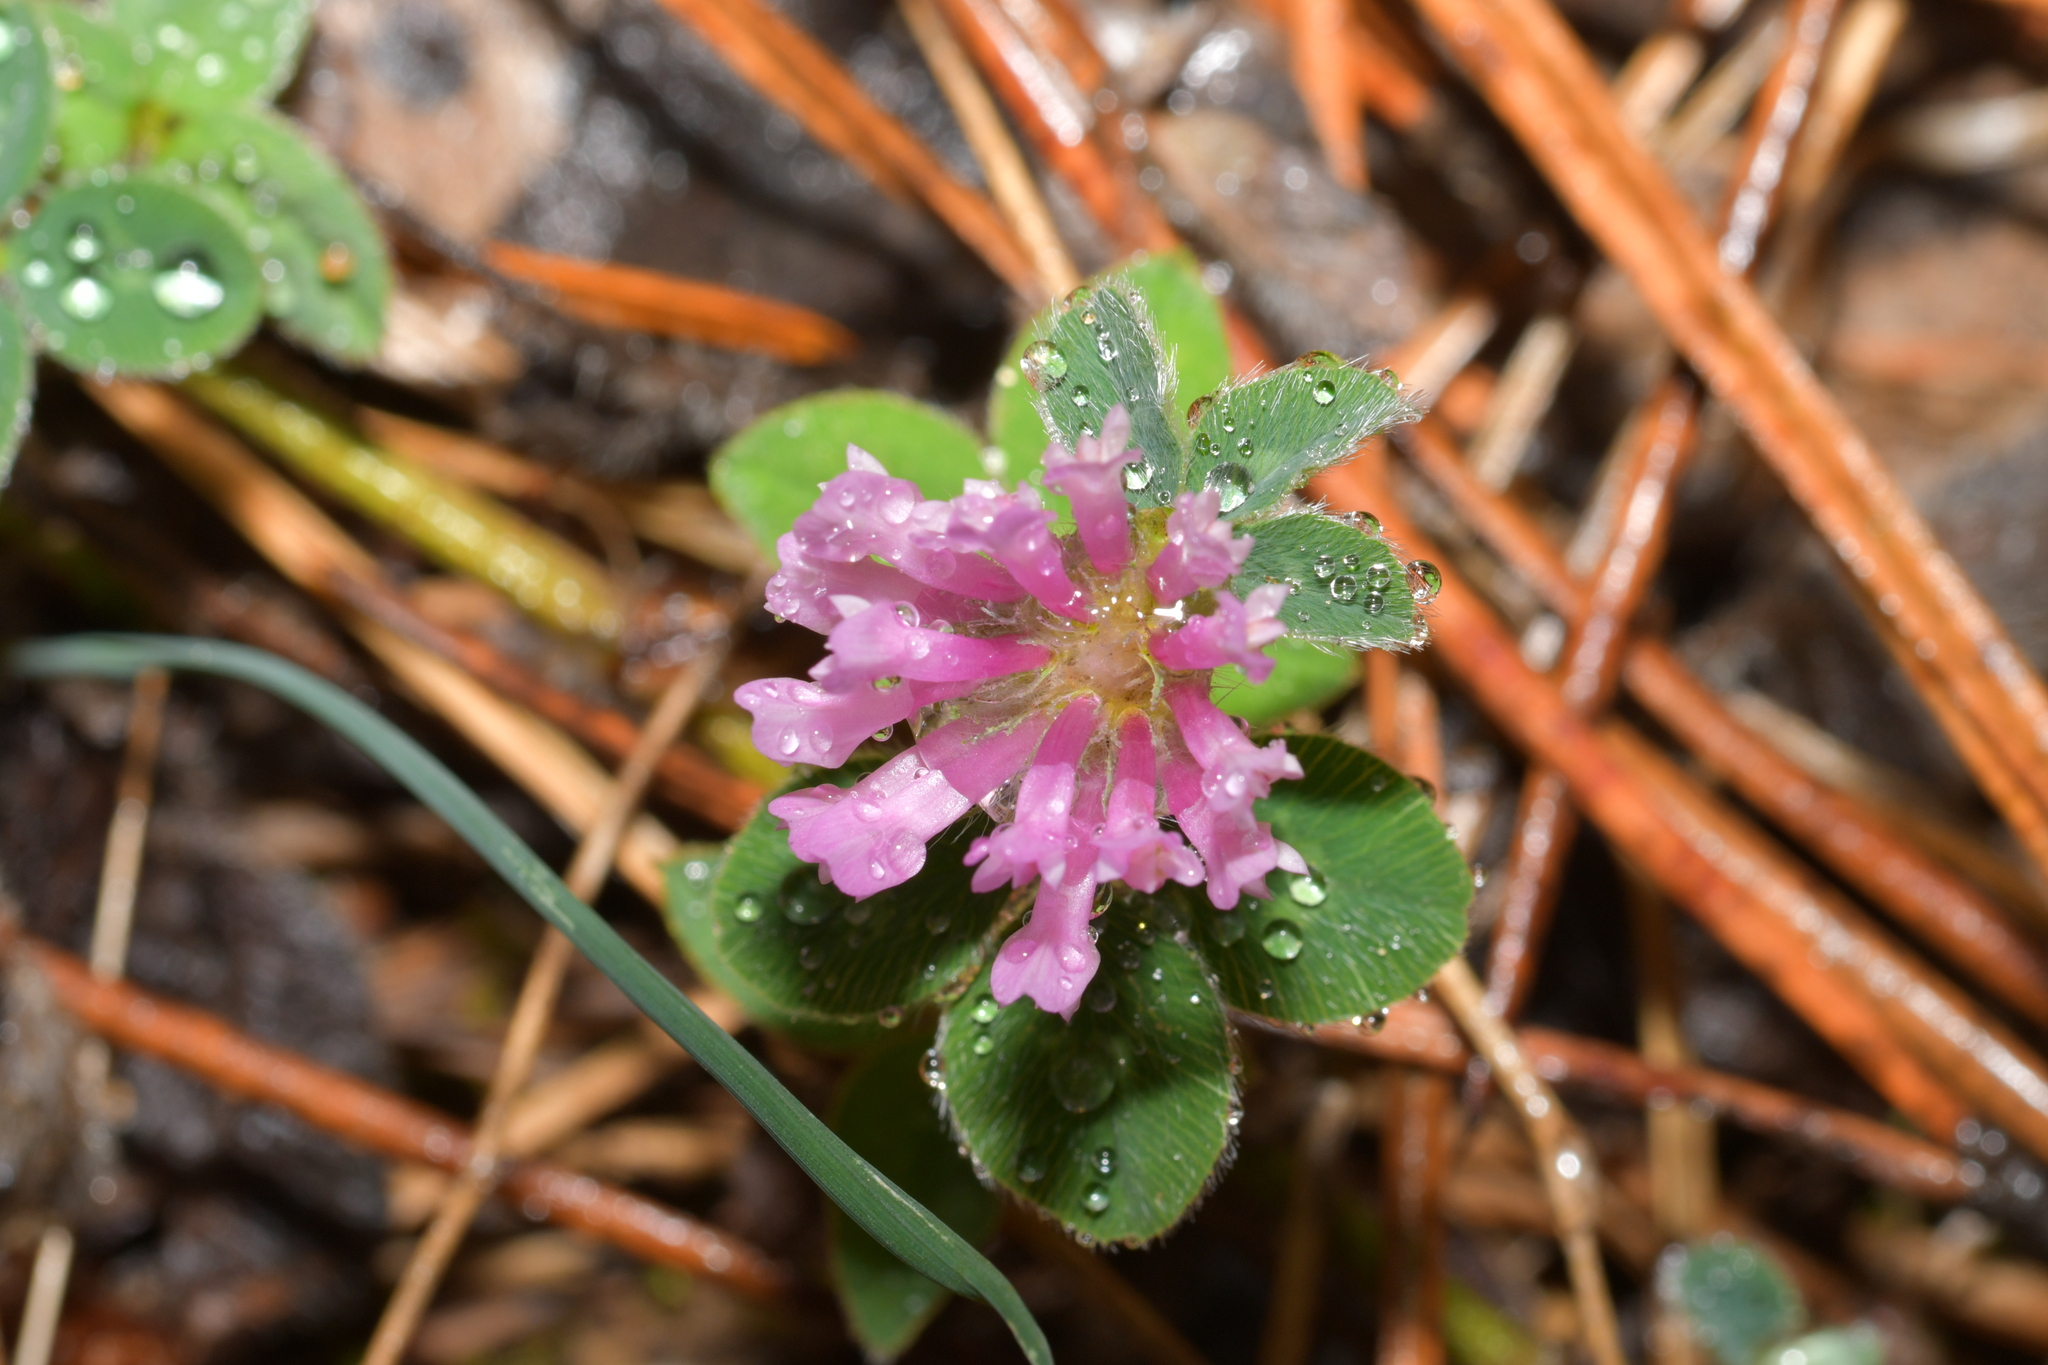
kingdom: Plantae
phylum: Tracheophyta
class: Magnoliopsida
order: Fabales
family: Fabaceae
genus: Trifolium
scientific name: Trifolium pratense
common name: Red clover
